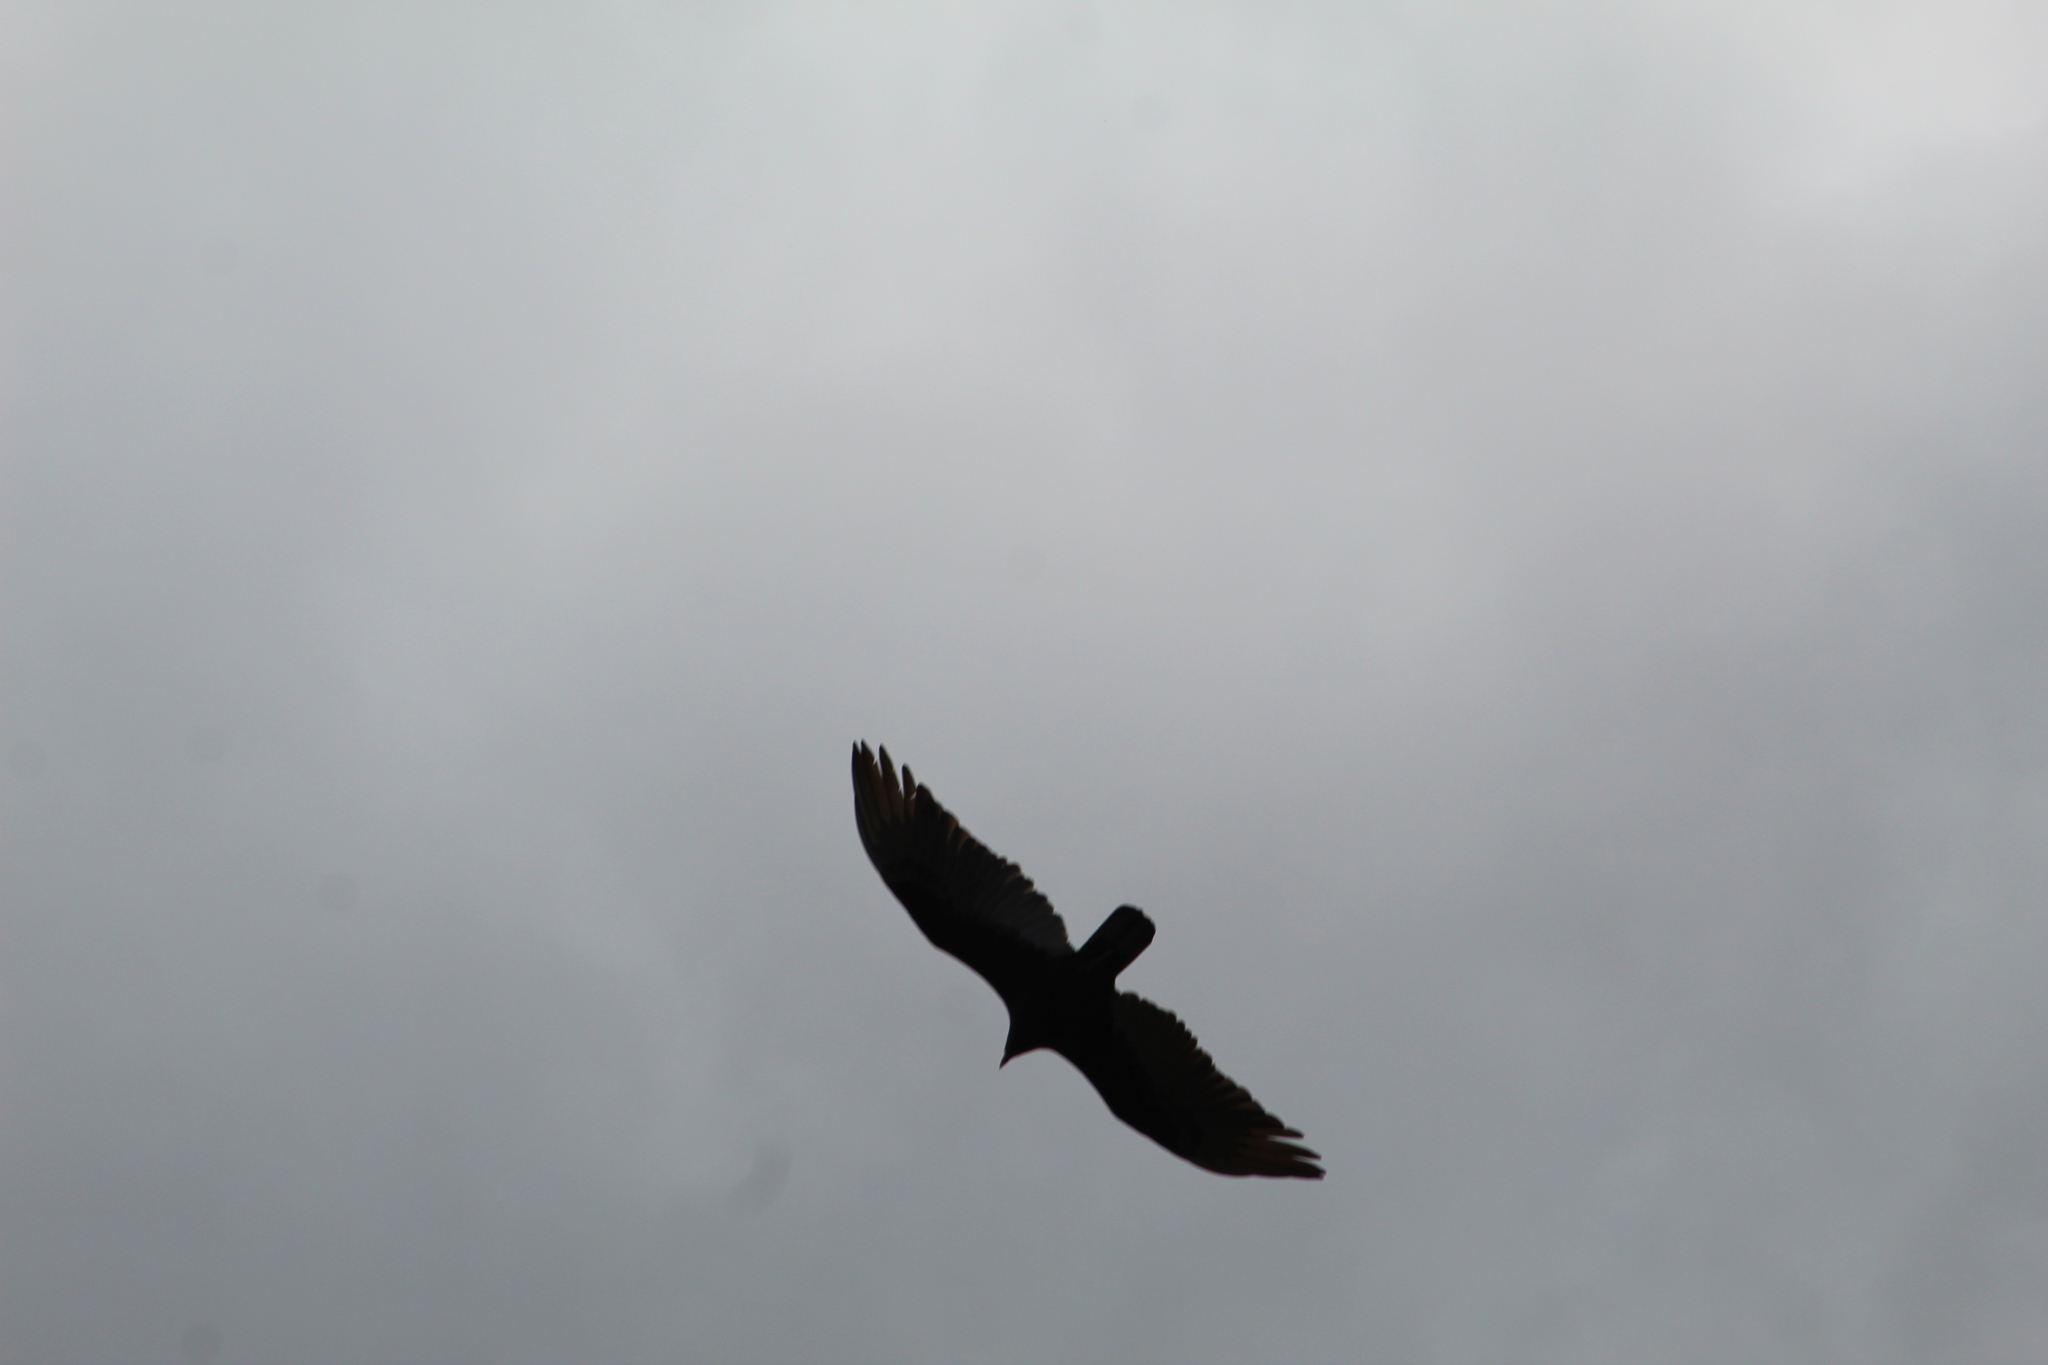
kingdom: Animalia
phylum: Chordata
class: Aves
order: Accipitriformes
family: Cathartidae
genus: Cathartes
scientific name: Cathartes aura
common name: Turkey vulture
